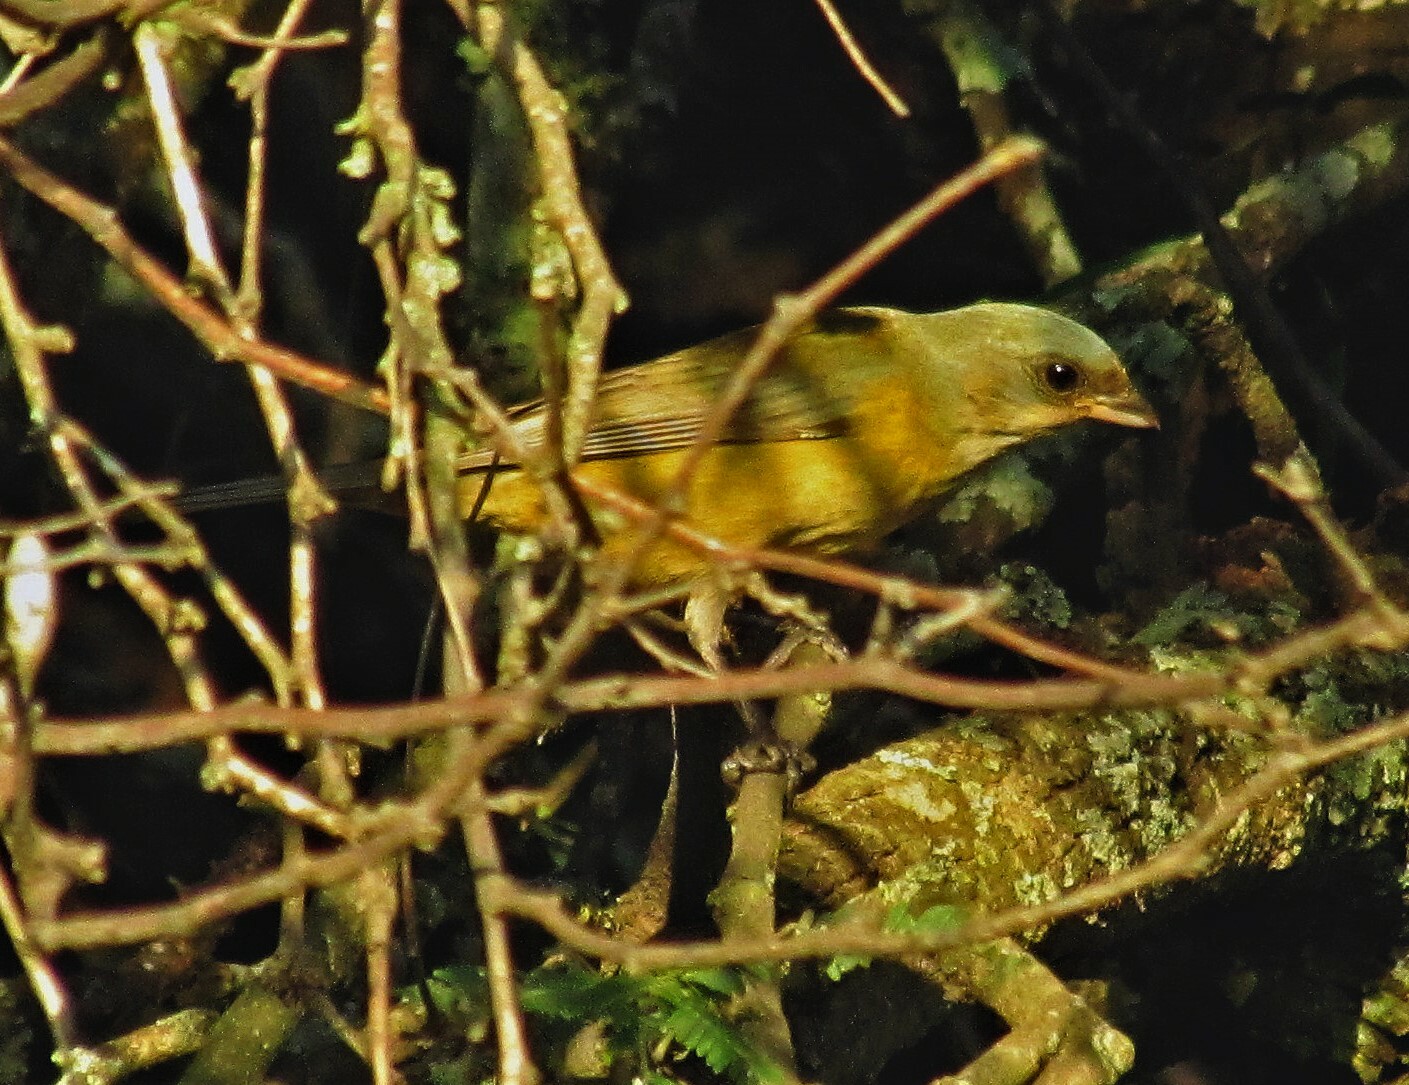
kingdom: Animalia
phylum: Chordata
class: Aves
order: Passeriformes
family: Thraupidae
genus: Rauenia
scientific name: Rauenia bonariensis
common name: Blue-and-yellow tanager
